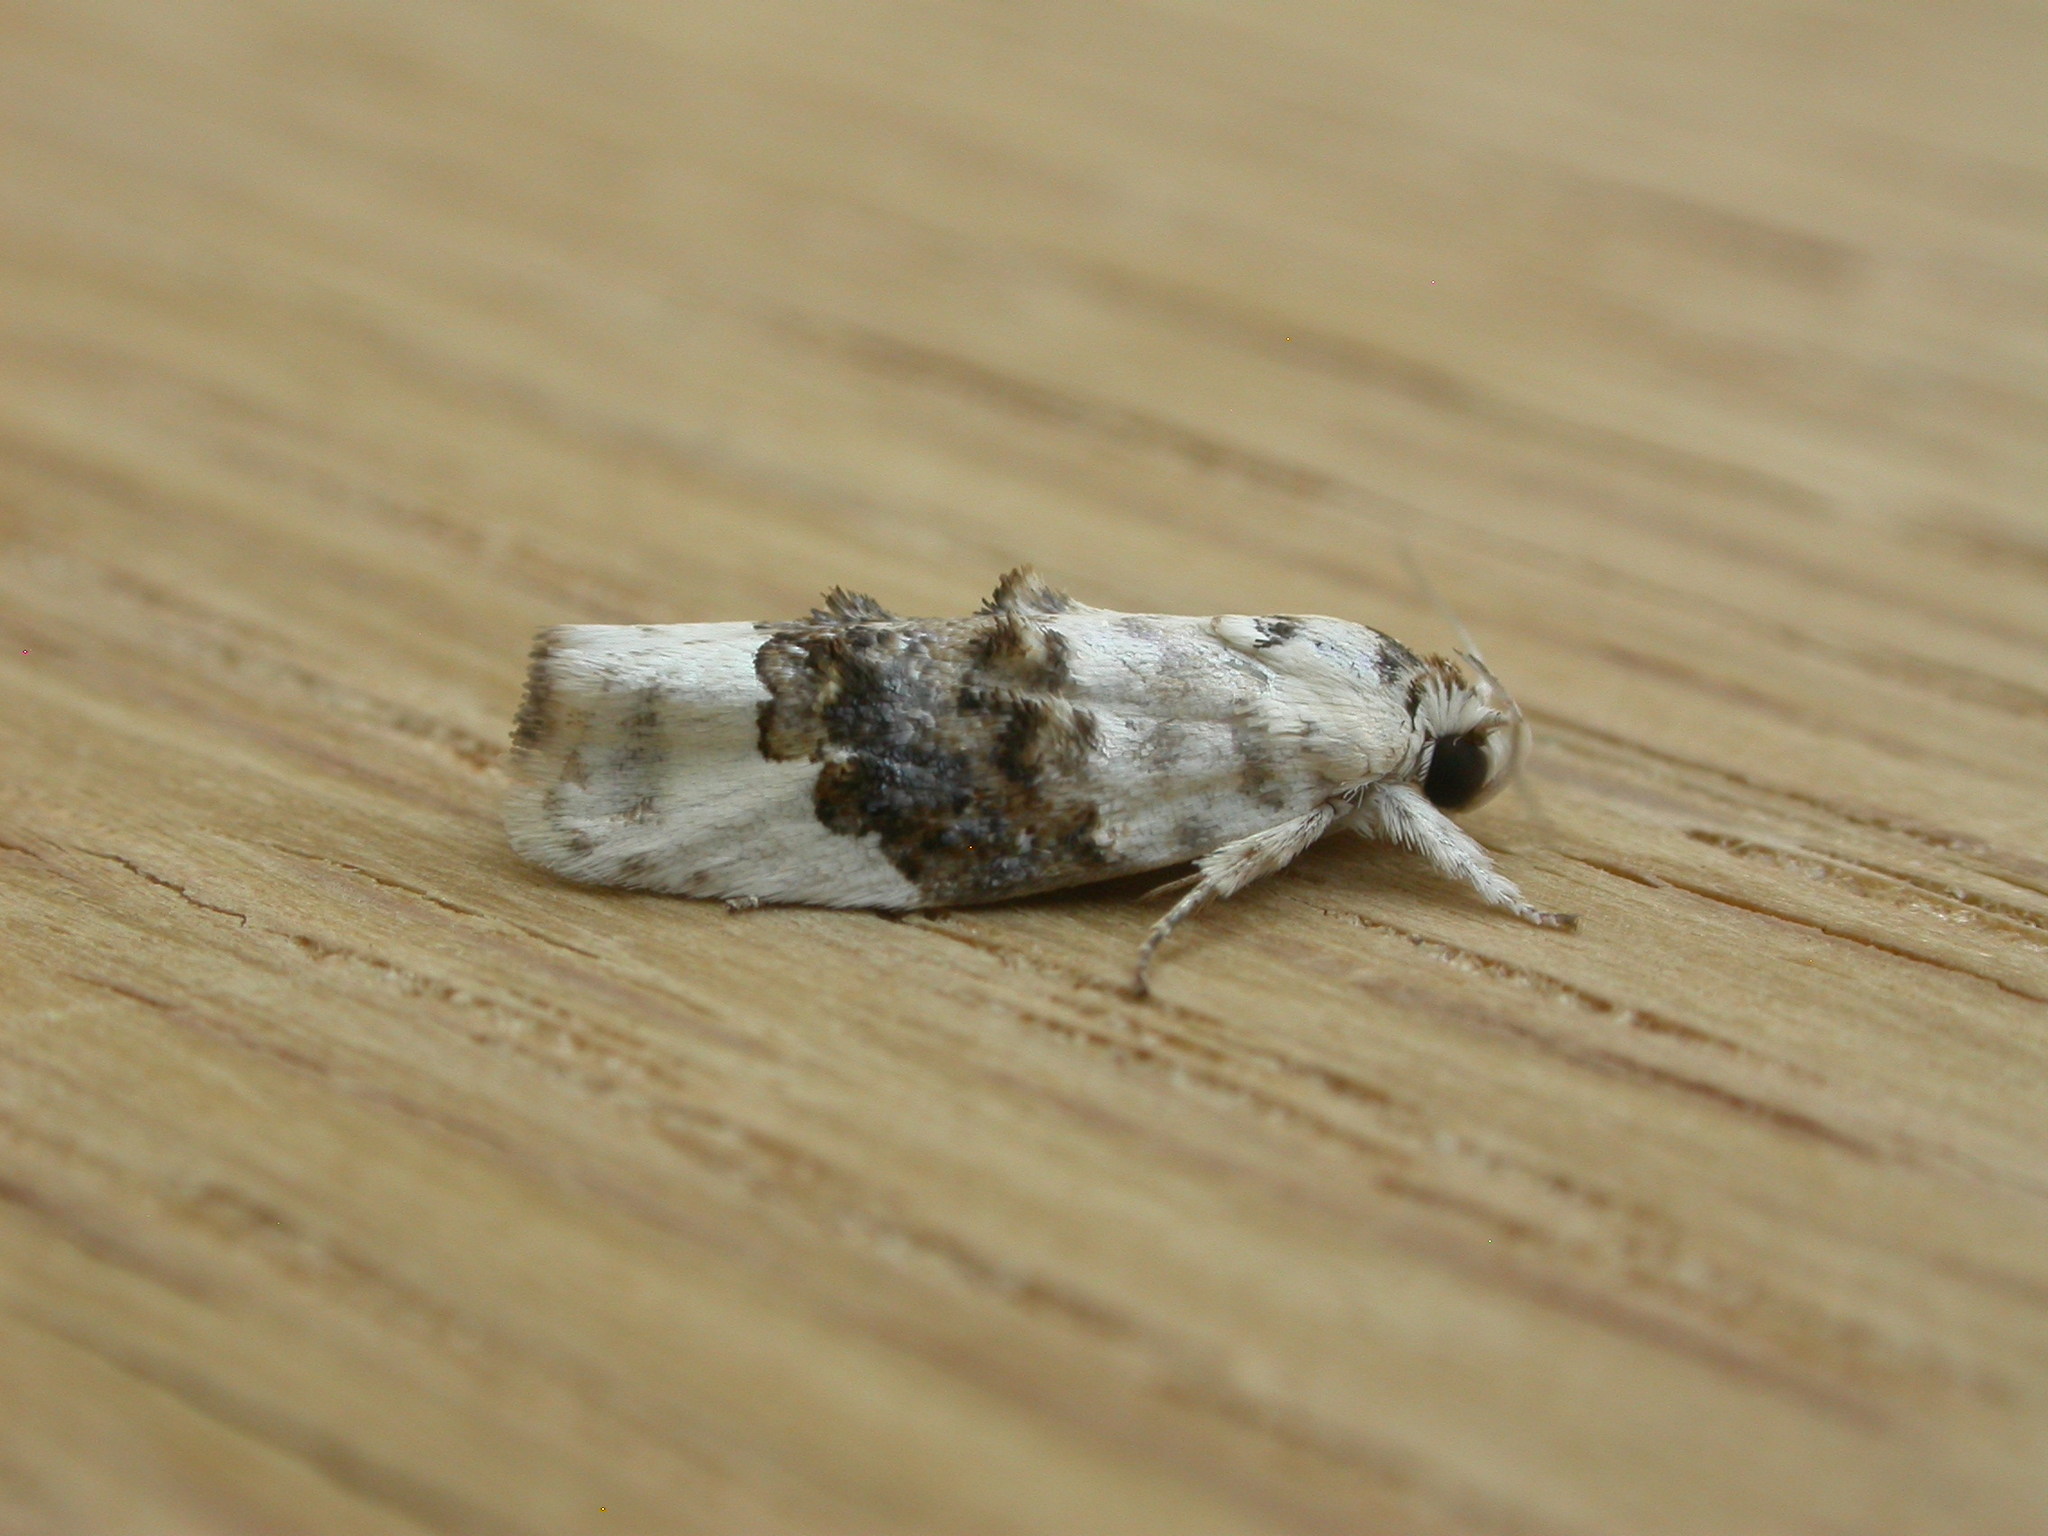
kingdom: Animalia
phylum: Arthropoda
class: Insecta
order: Lepidoptera
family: Oecophoridae
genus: Piloprepes
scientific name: Piloprepes antidoxa
